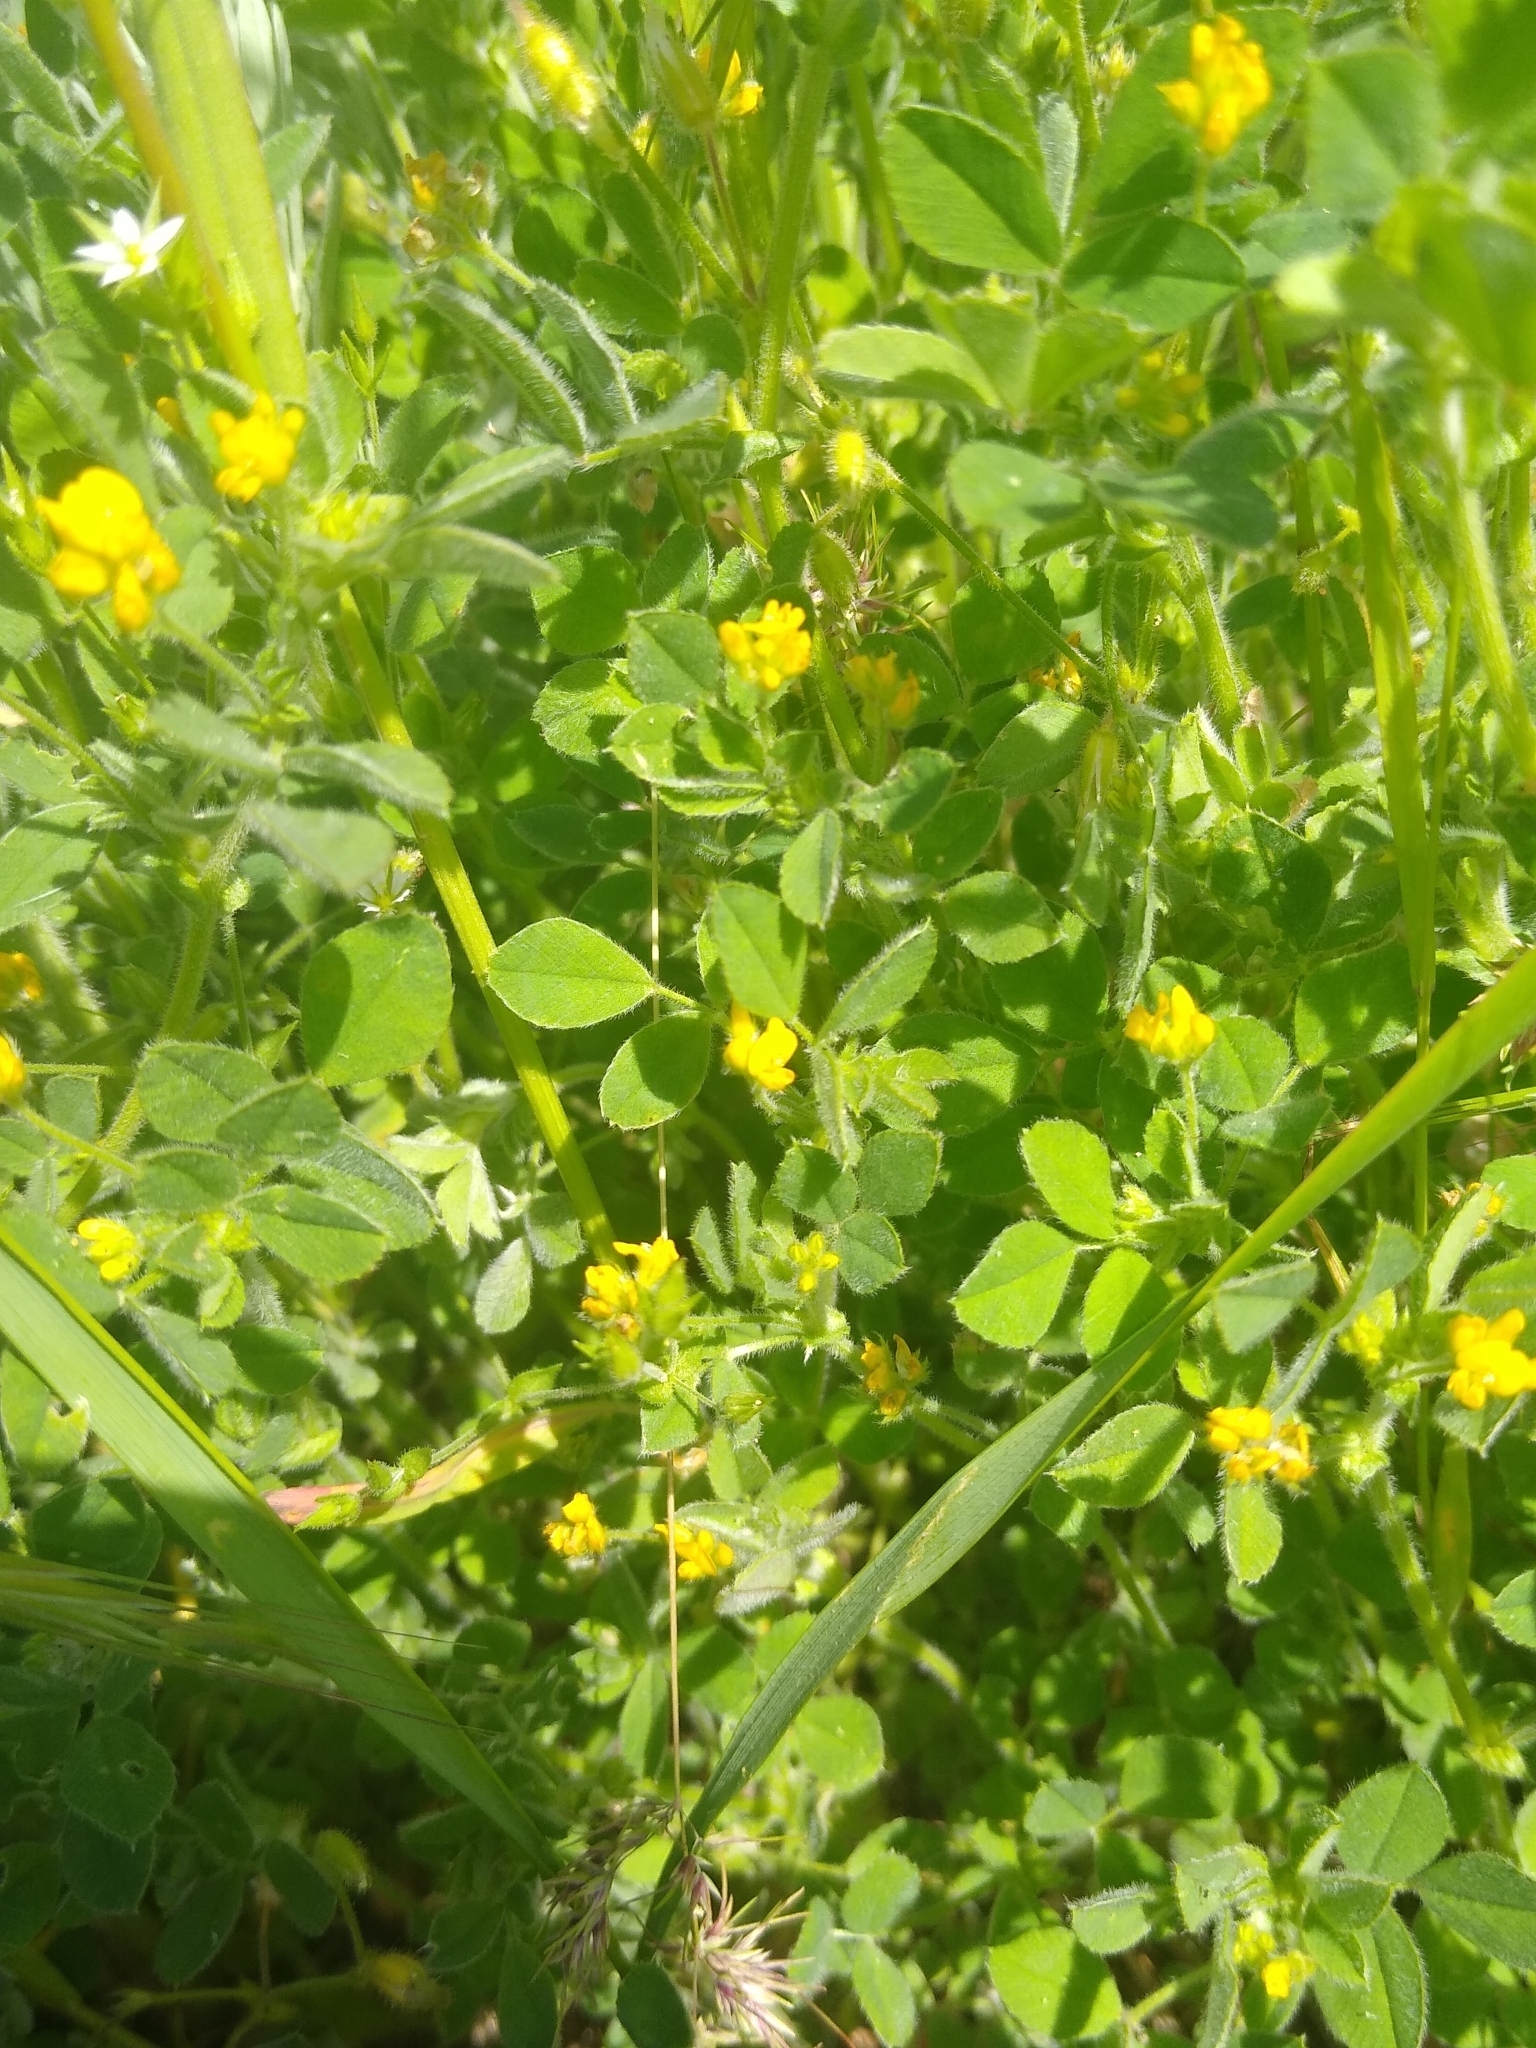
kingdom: Plantae
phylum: Tracheophyta
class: Magnoliopsida
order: Fabales
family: Fabaceae
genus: Medicago
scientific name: Medicago minima
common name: Little bur-clover
